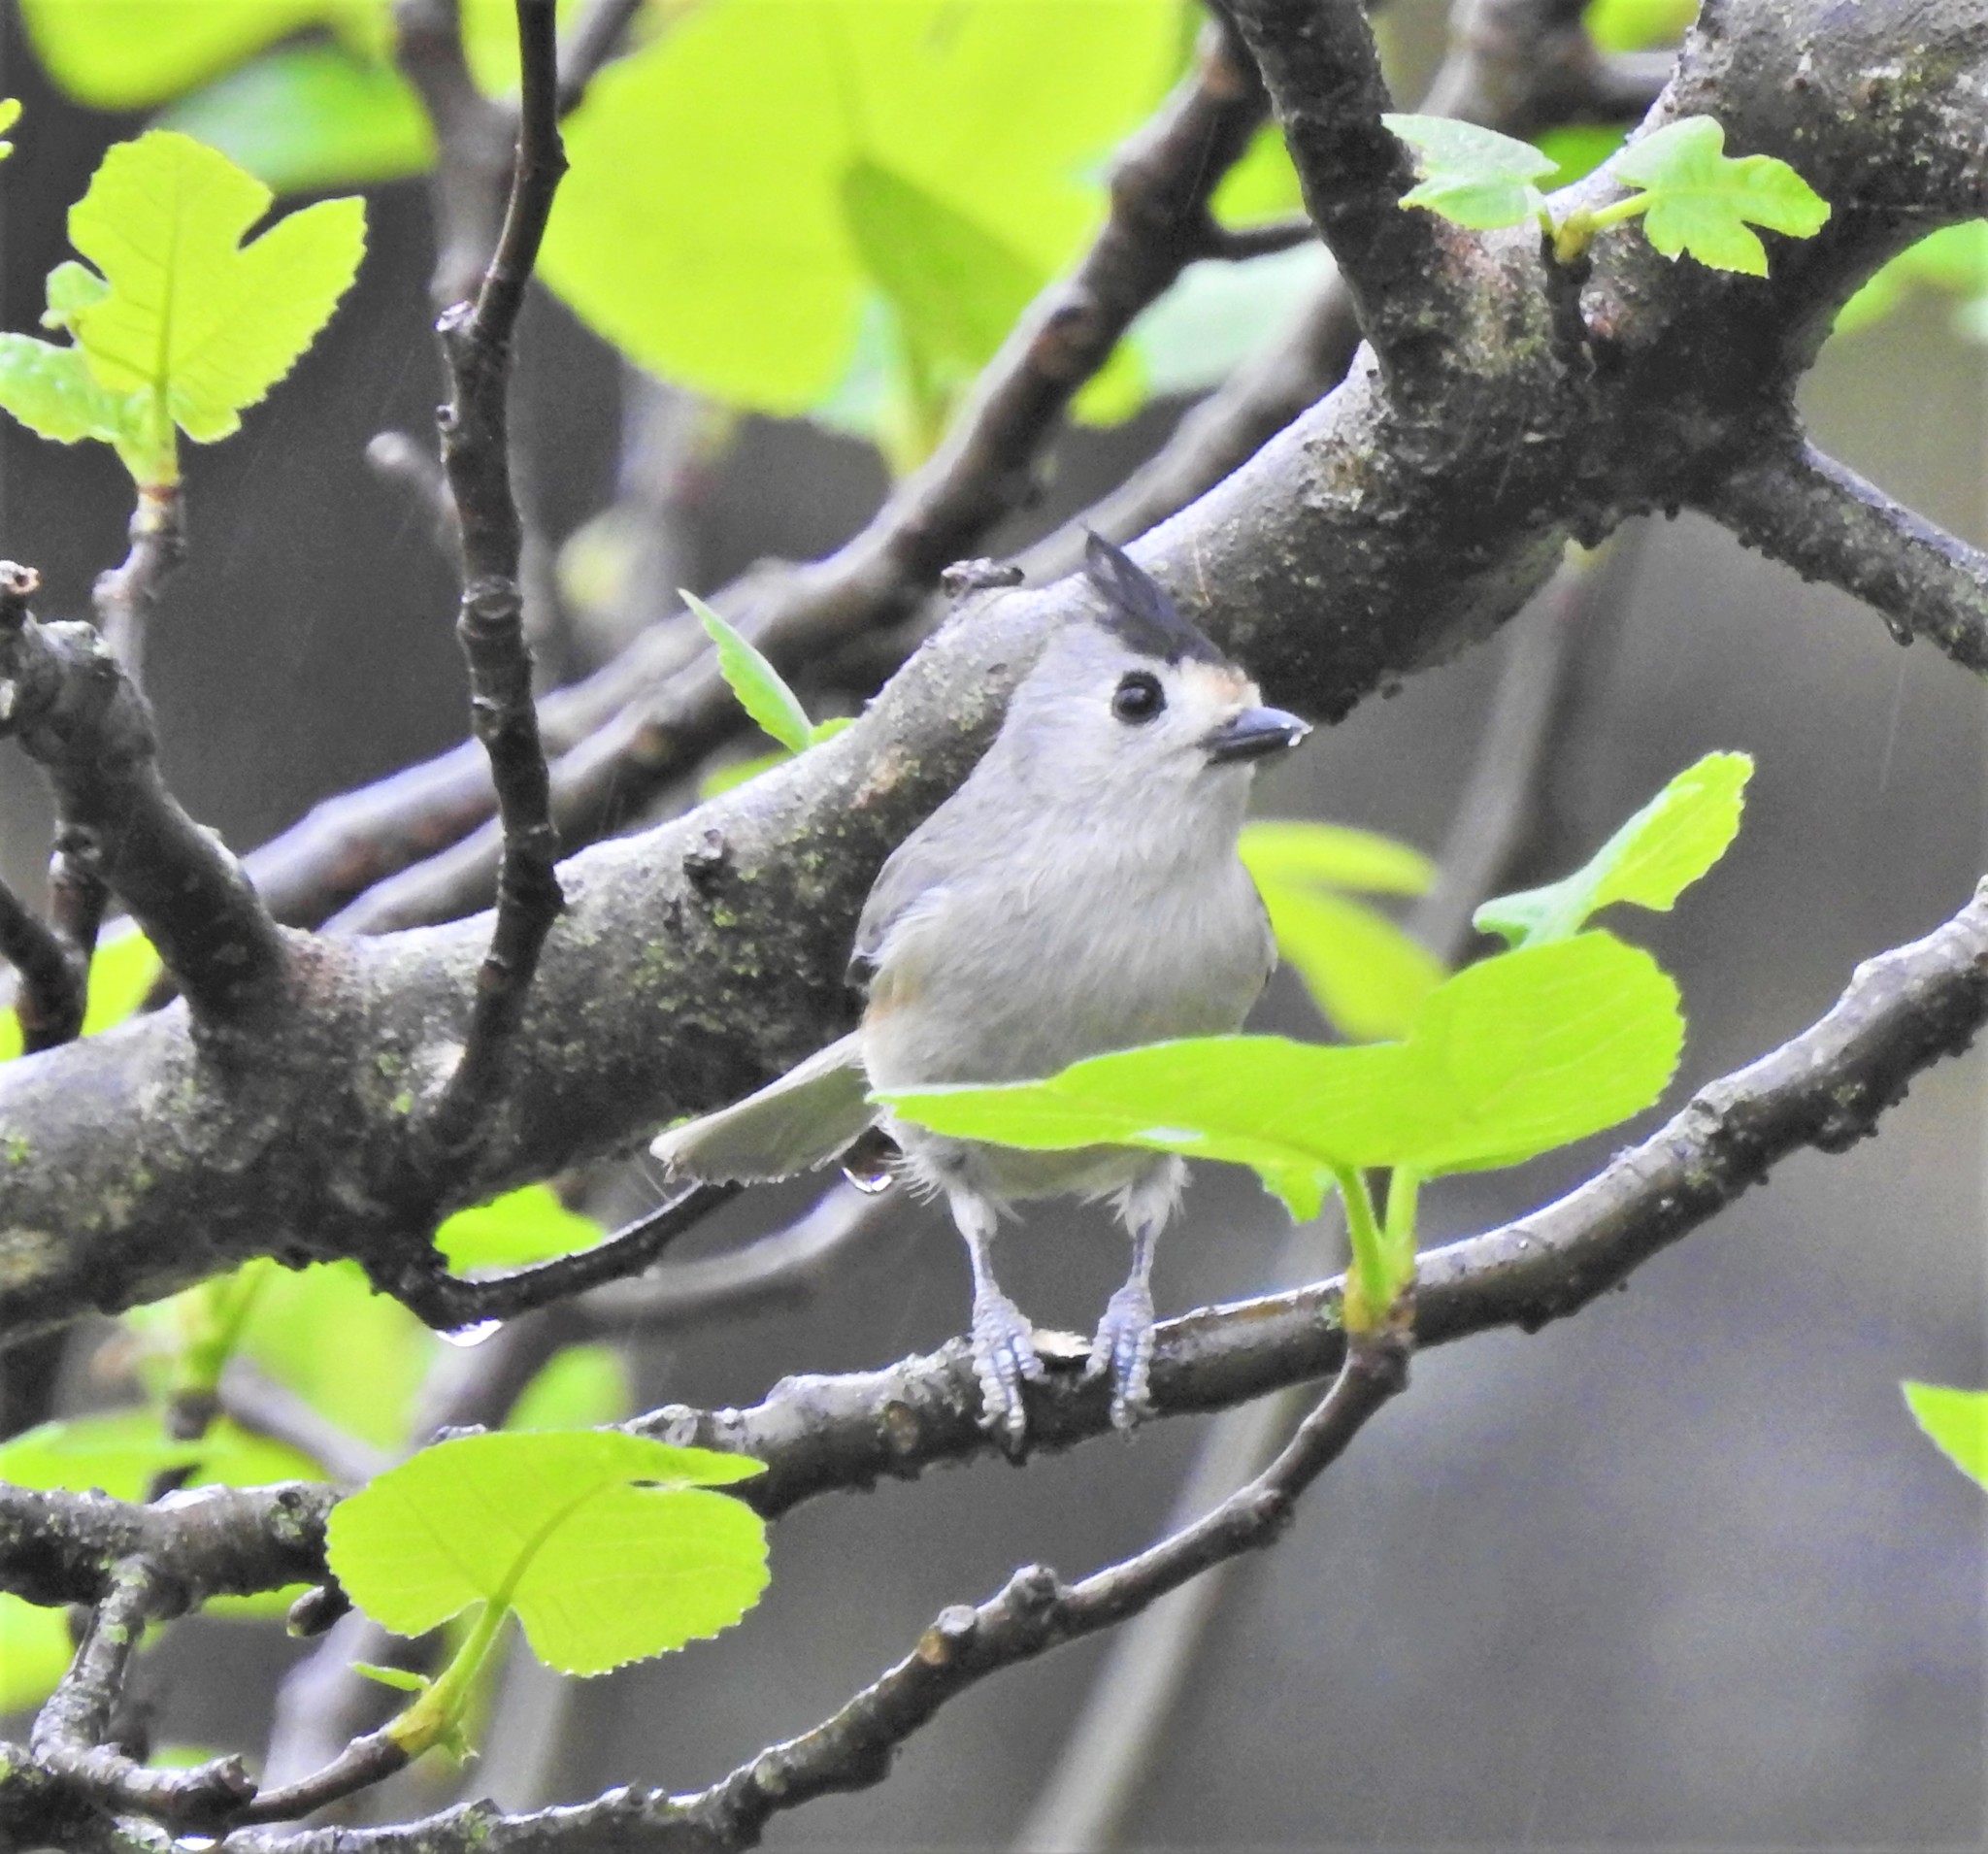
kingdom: Animalia
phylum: Chordata
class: Aves
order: Passeriformes
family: Paridae
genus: Baeolophus
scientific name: Baeolophus atricristatus
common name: Black-crested titmouse
